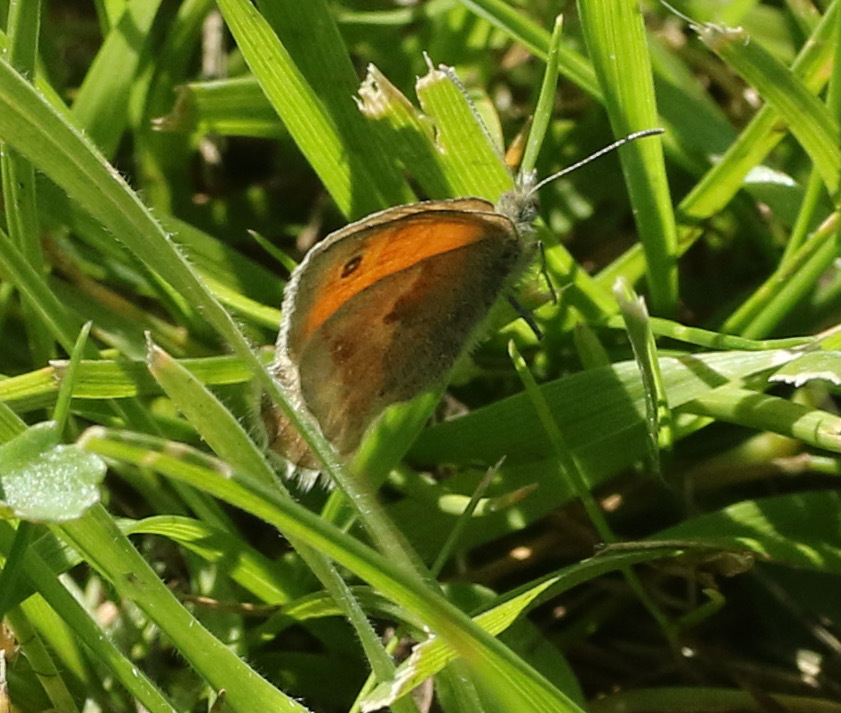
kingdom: Animalia
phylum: Arthropoda
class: Insecta
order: Lepidoptera
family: Nymphalidae
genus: Coenonympha
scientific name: Coenonympha pamphilus
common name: Small heath
